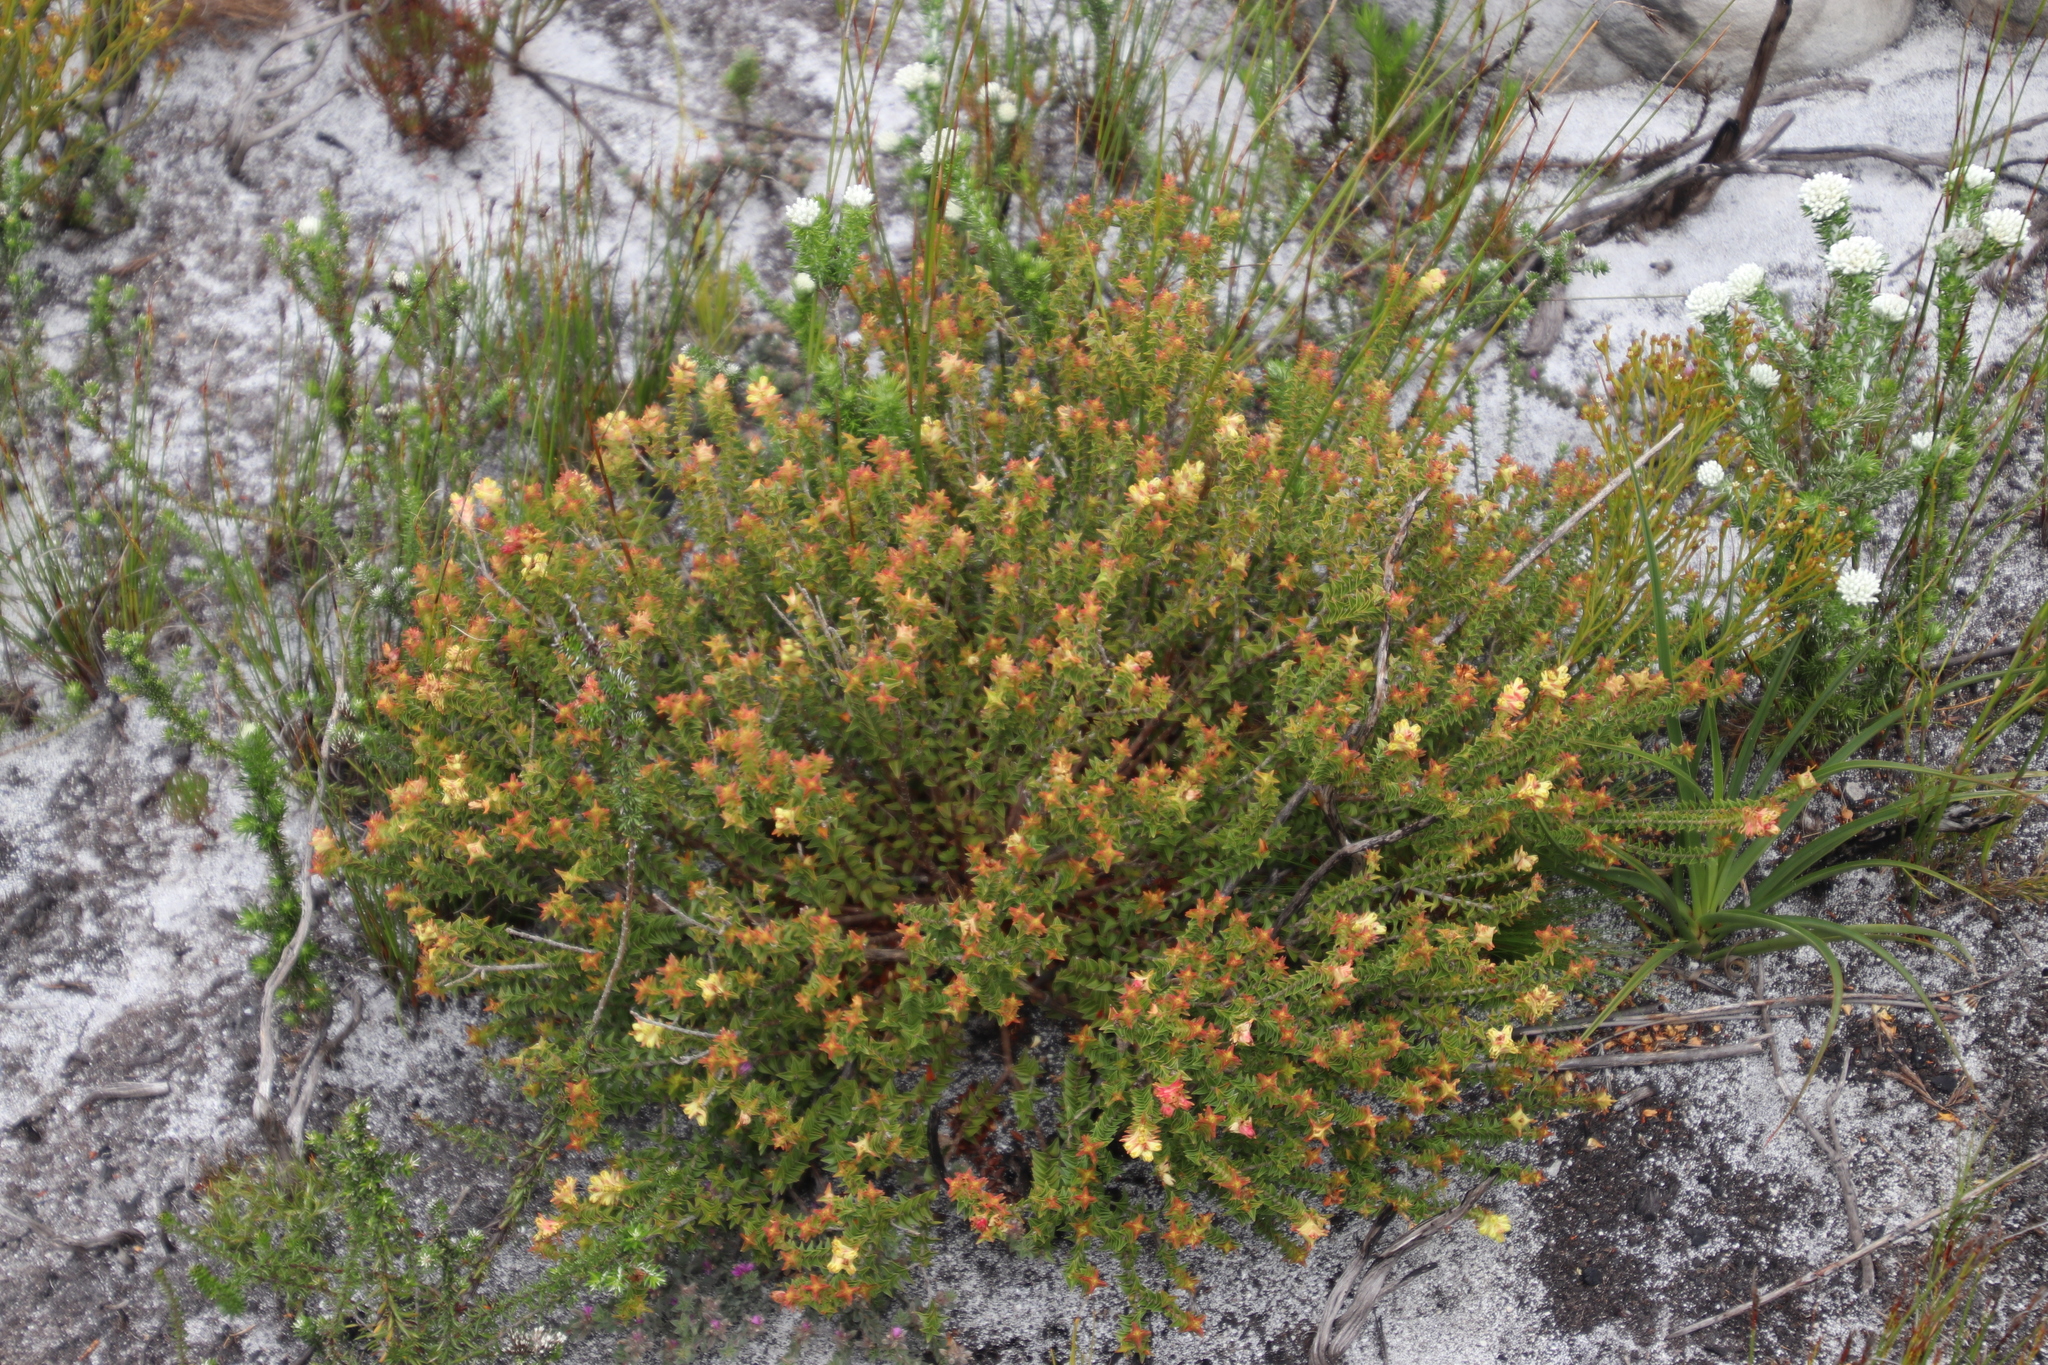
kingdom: Plantae
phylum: Tracheophyta
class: Magnoliopsida
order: Myrtales
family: Penaeaceae
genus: Penaea
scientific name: Penaea mucronata
